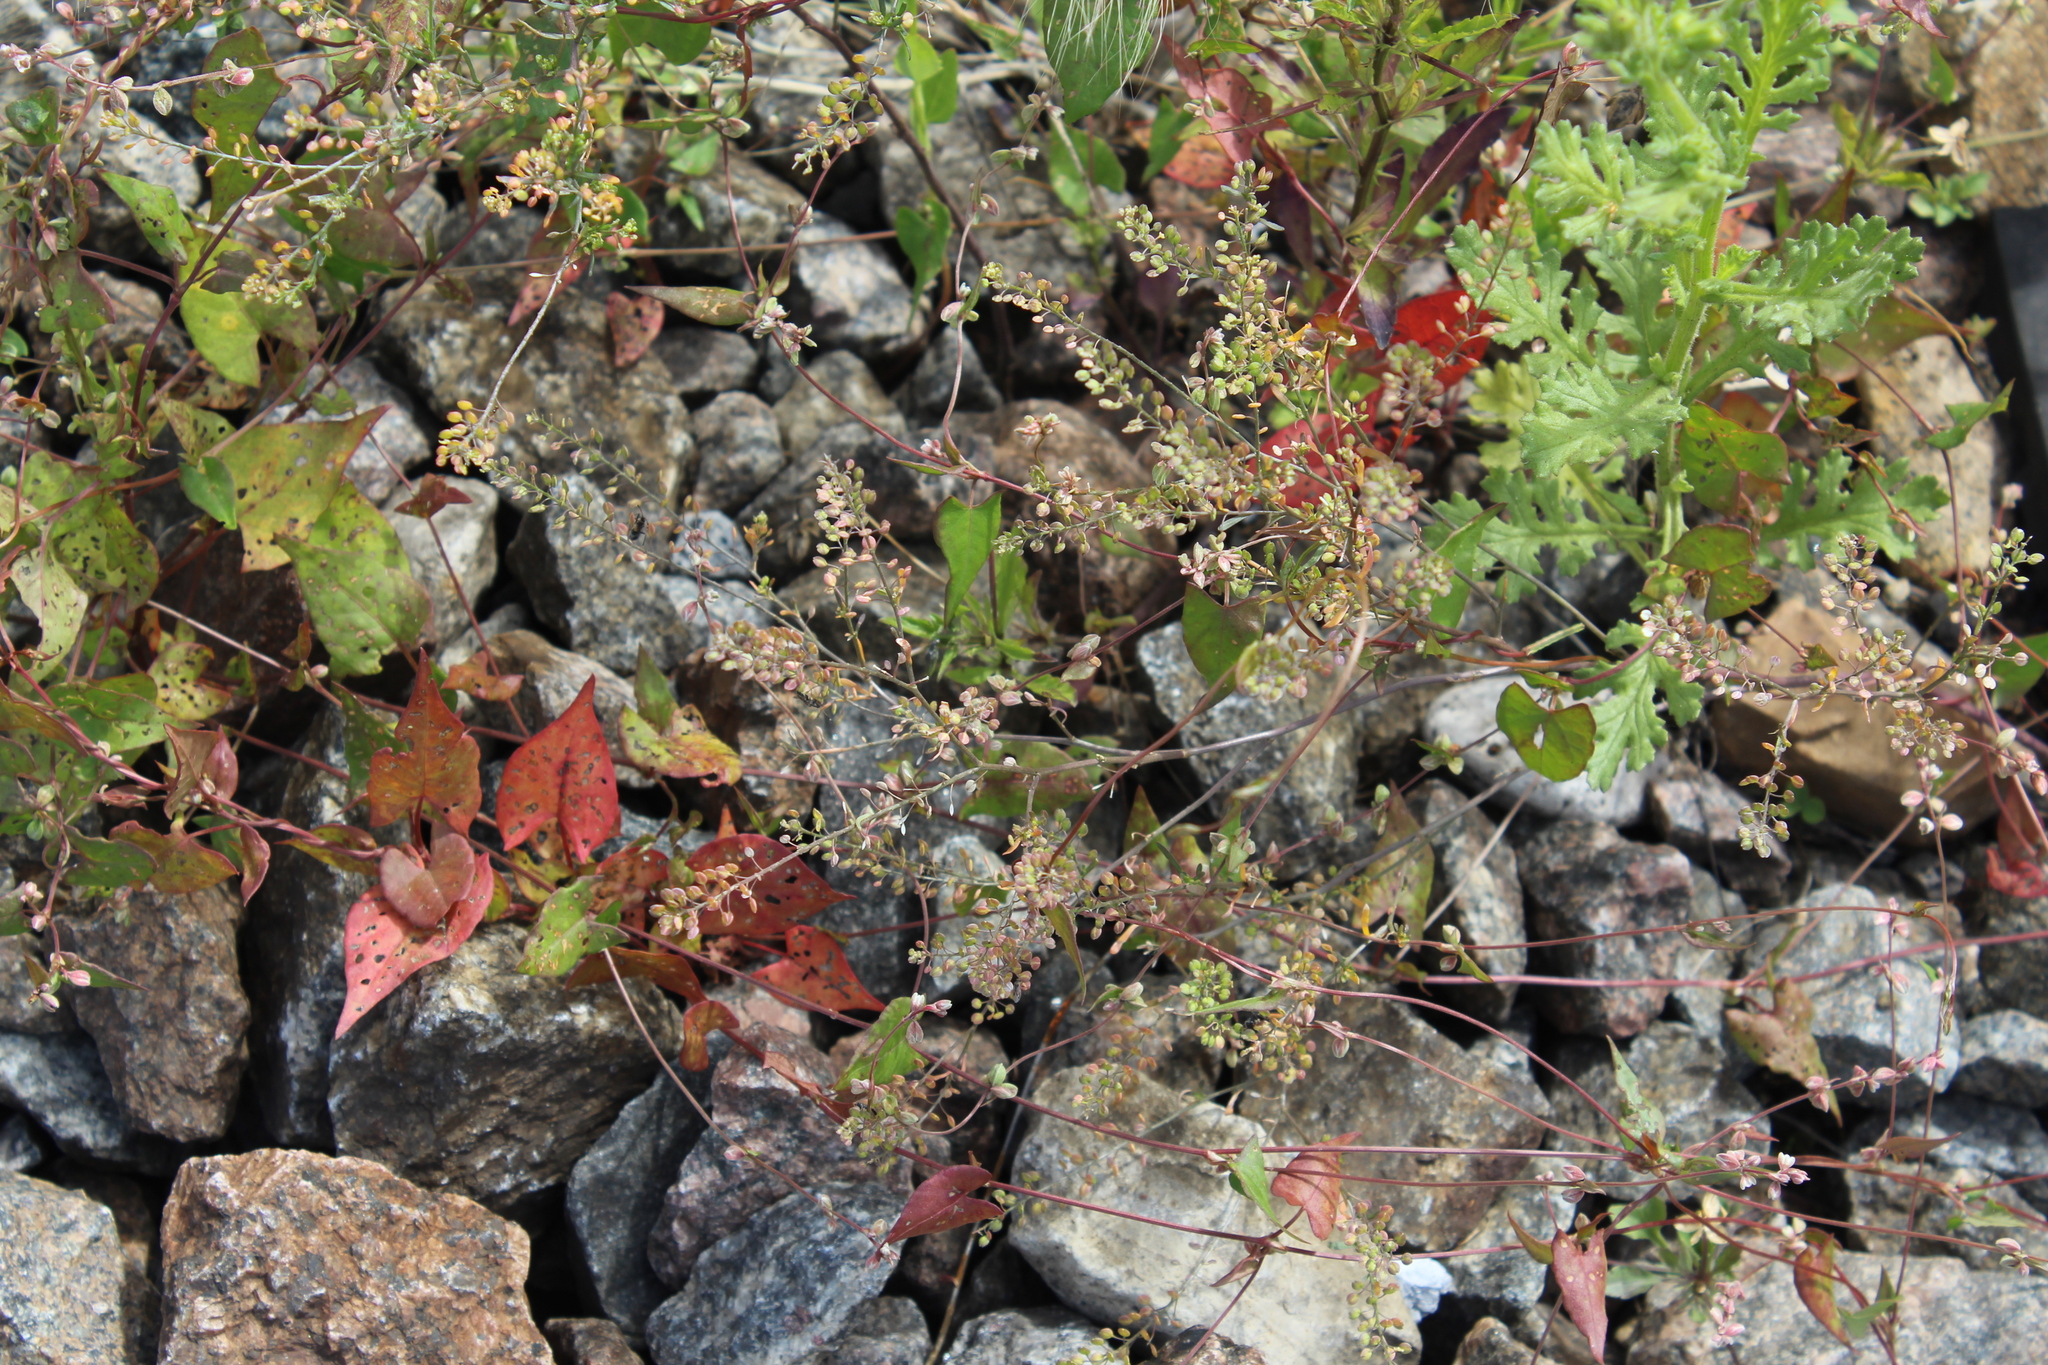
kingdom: Plantae
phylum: Tracheophyta
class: Magnoliopsida
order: Brassicales
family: Brassicaceae
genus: Lepidium
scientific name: Lepidium ruderale
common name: Narrow-leaved pepperwort
